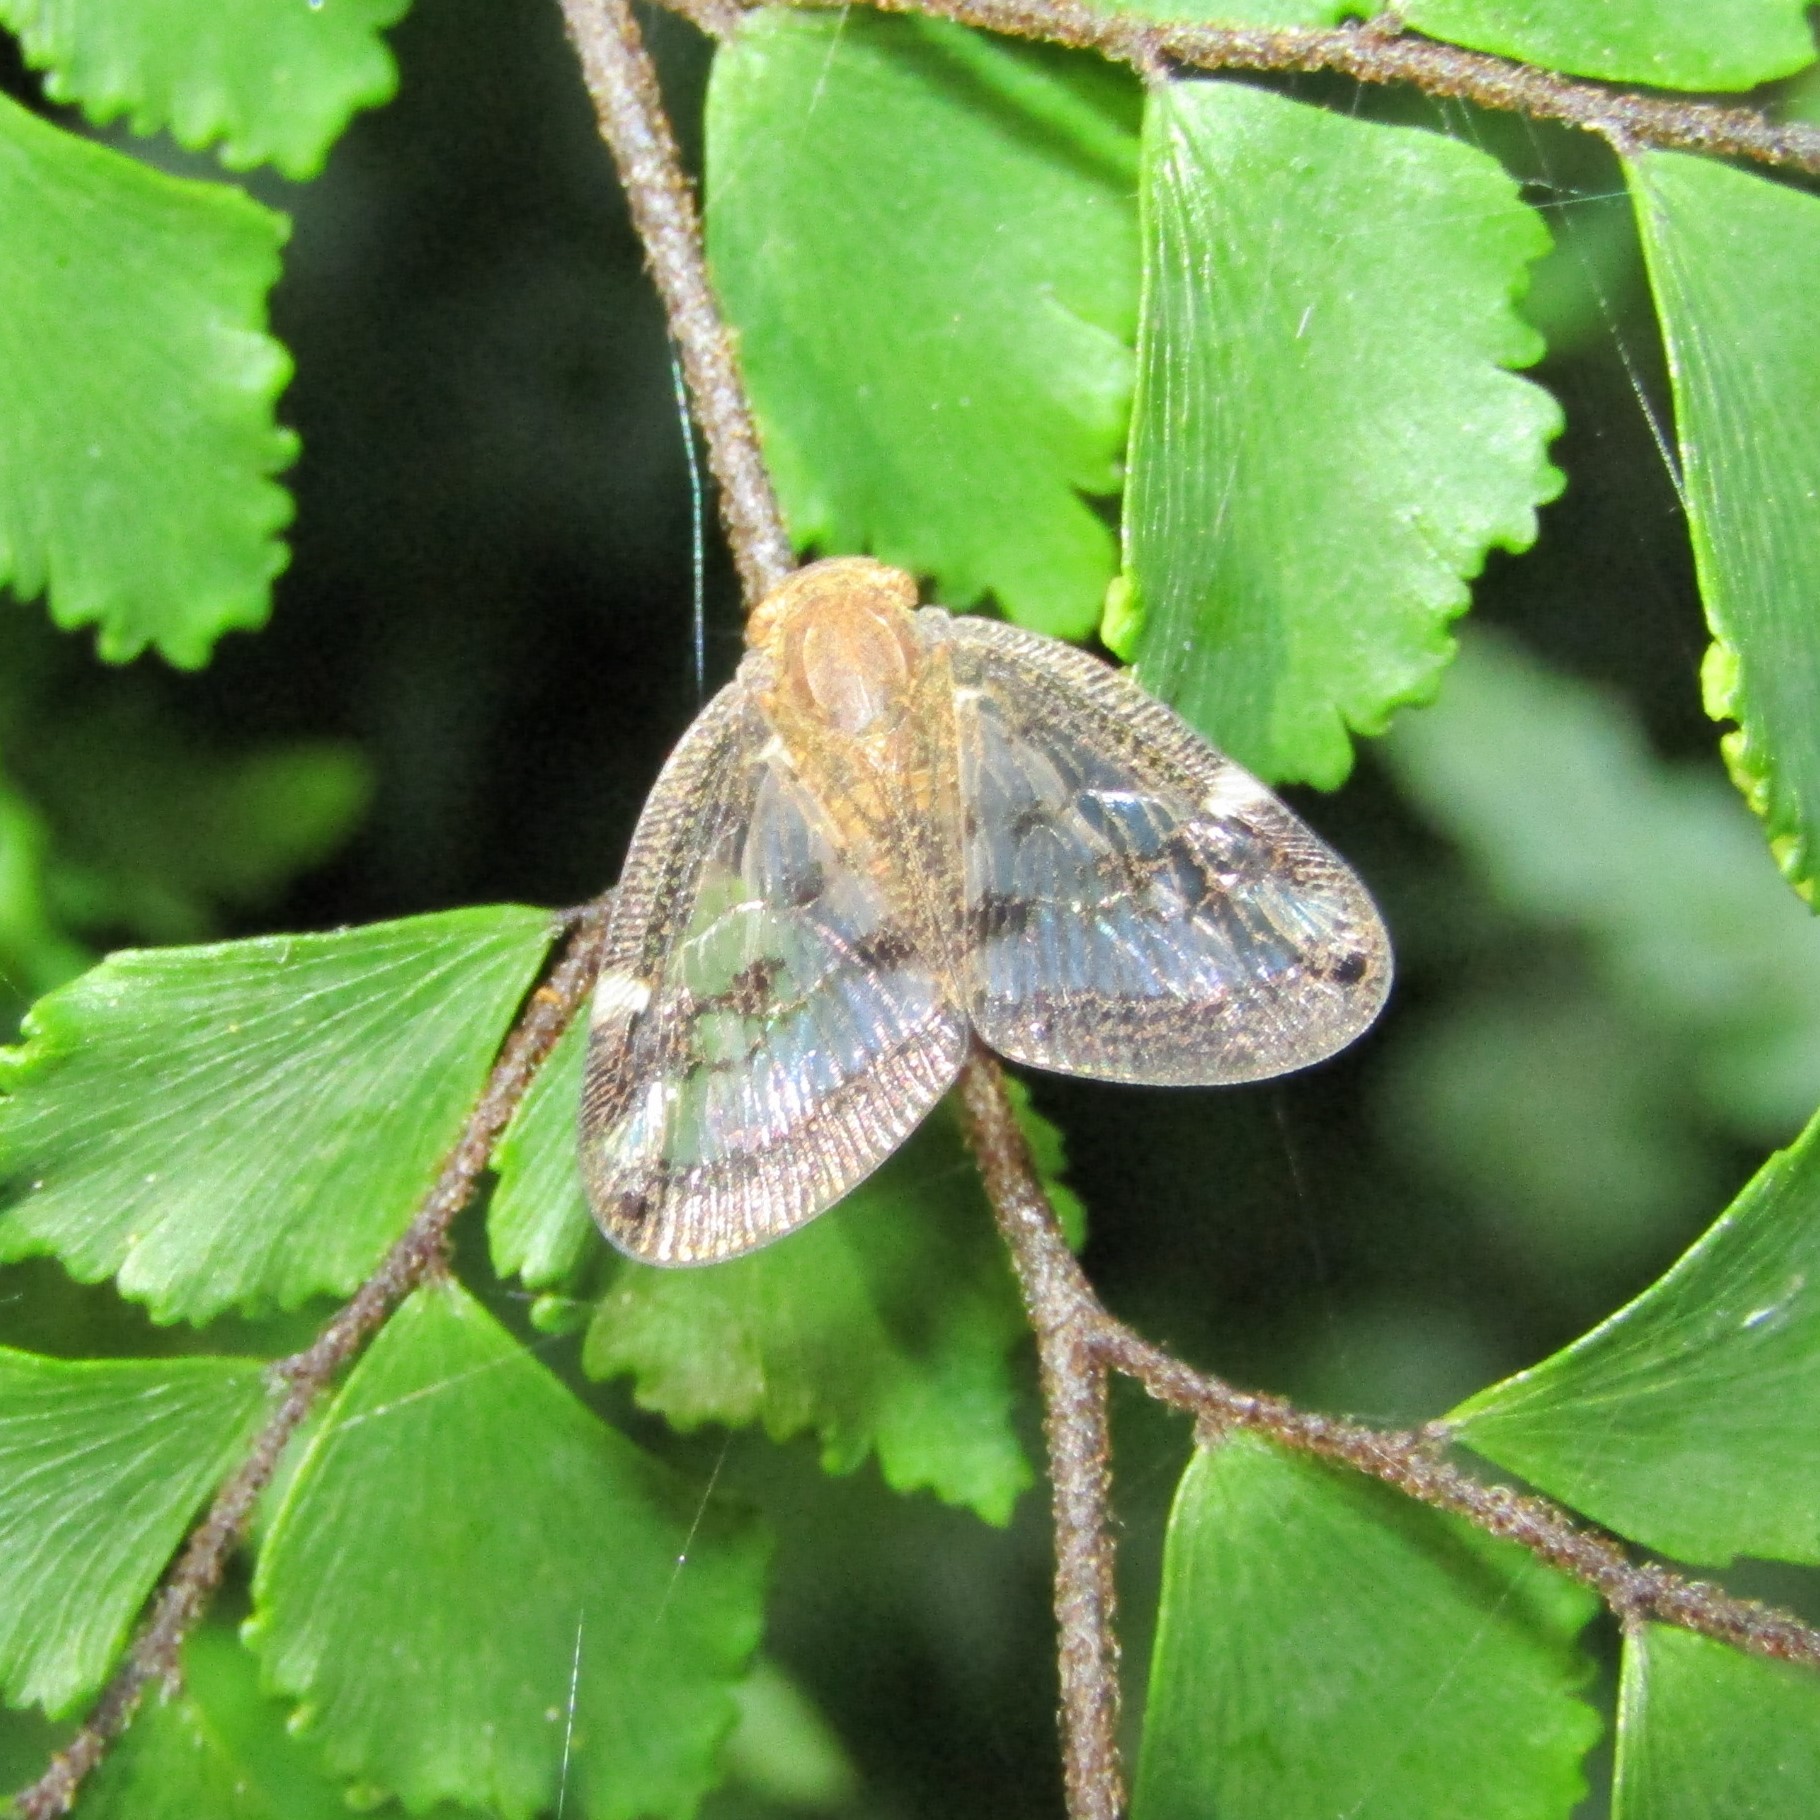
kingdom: Animalia
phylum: Arthropoda
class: Insecta
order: Hemiptera
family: Ricaniidae
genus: Scolypopa
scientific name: Scolypopa australis
